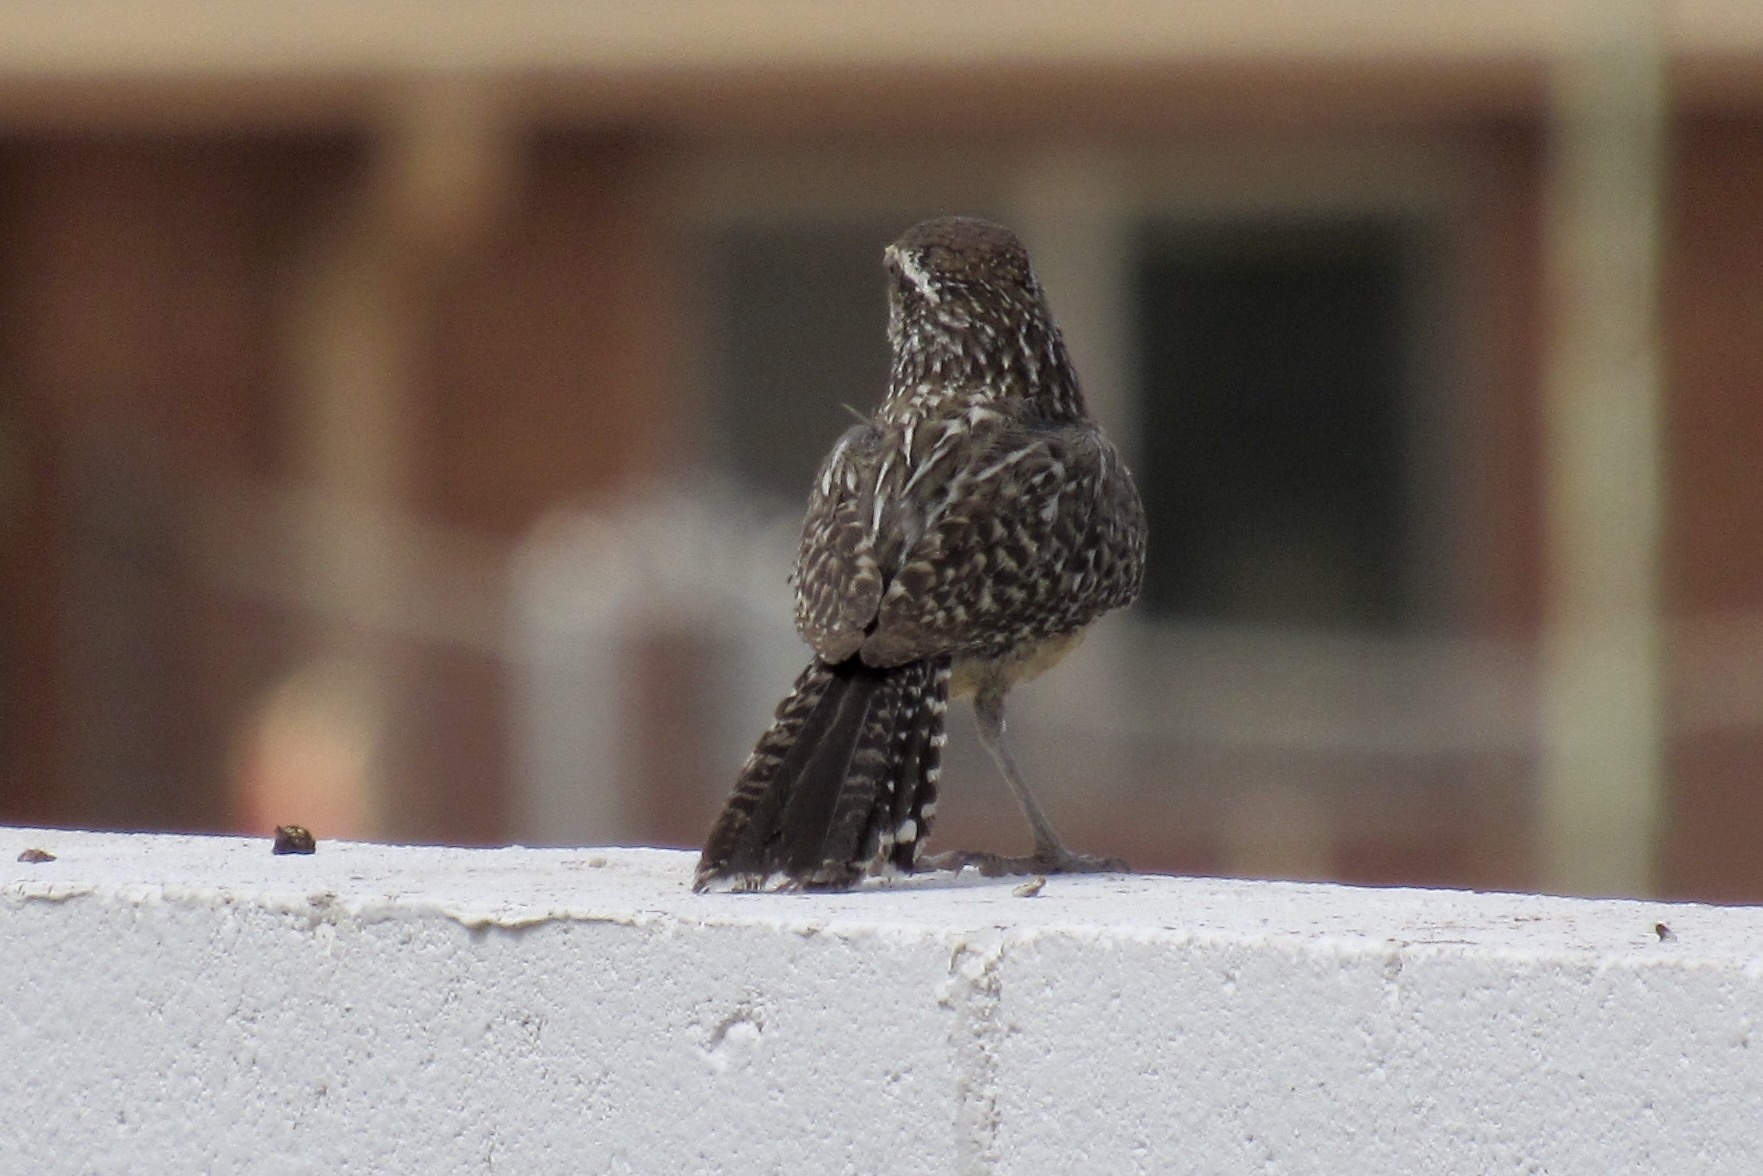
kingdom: Animalia
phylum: Chordata
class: Aves
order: Passeriformes
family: Troglodytidae
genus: Campylorhynchus
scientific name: Campylorhynchus brunneicapillus
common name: Cactus wren
